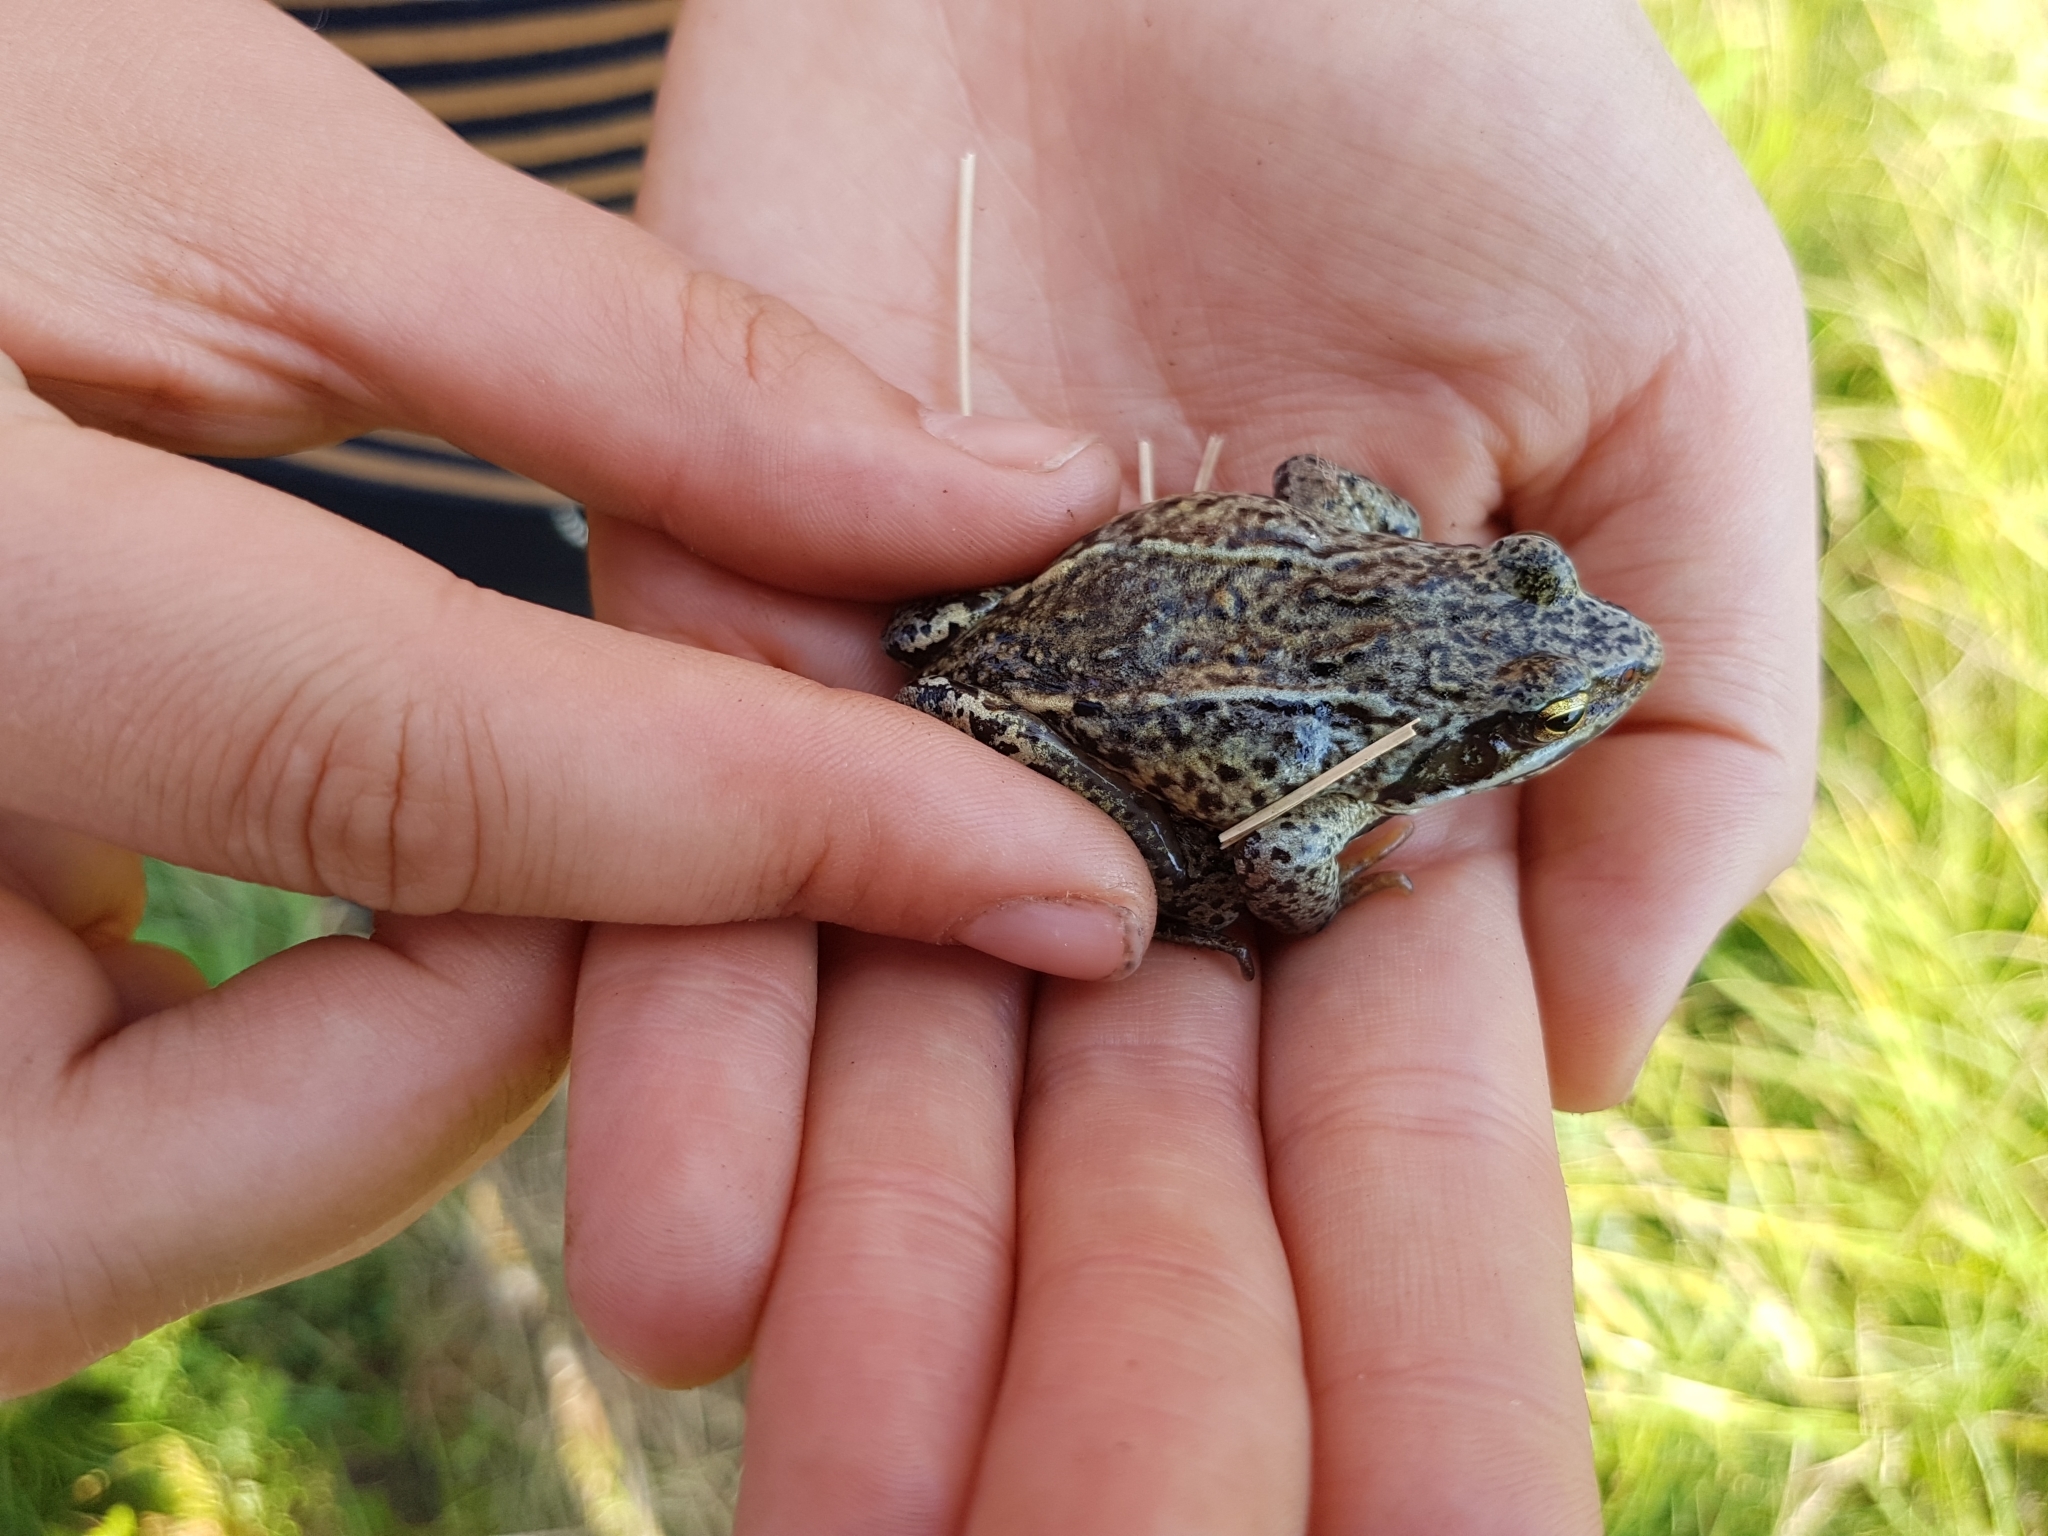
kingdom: Animalia
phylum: Chordata
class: Amphibia
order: Anura
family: Ranidae
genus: Rana
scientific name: Rana arvalis
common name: Moor frog
